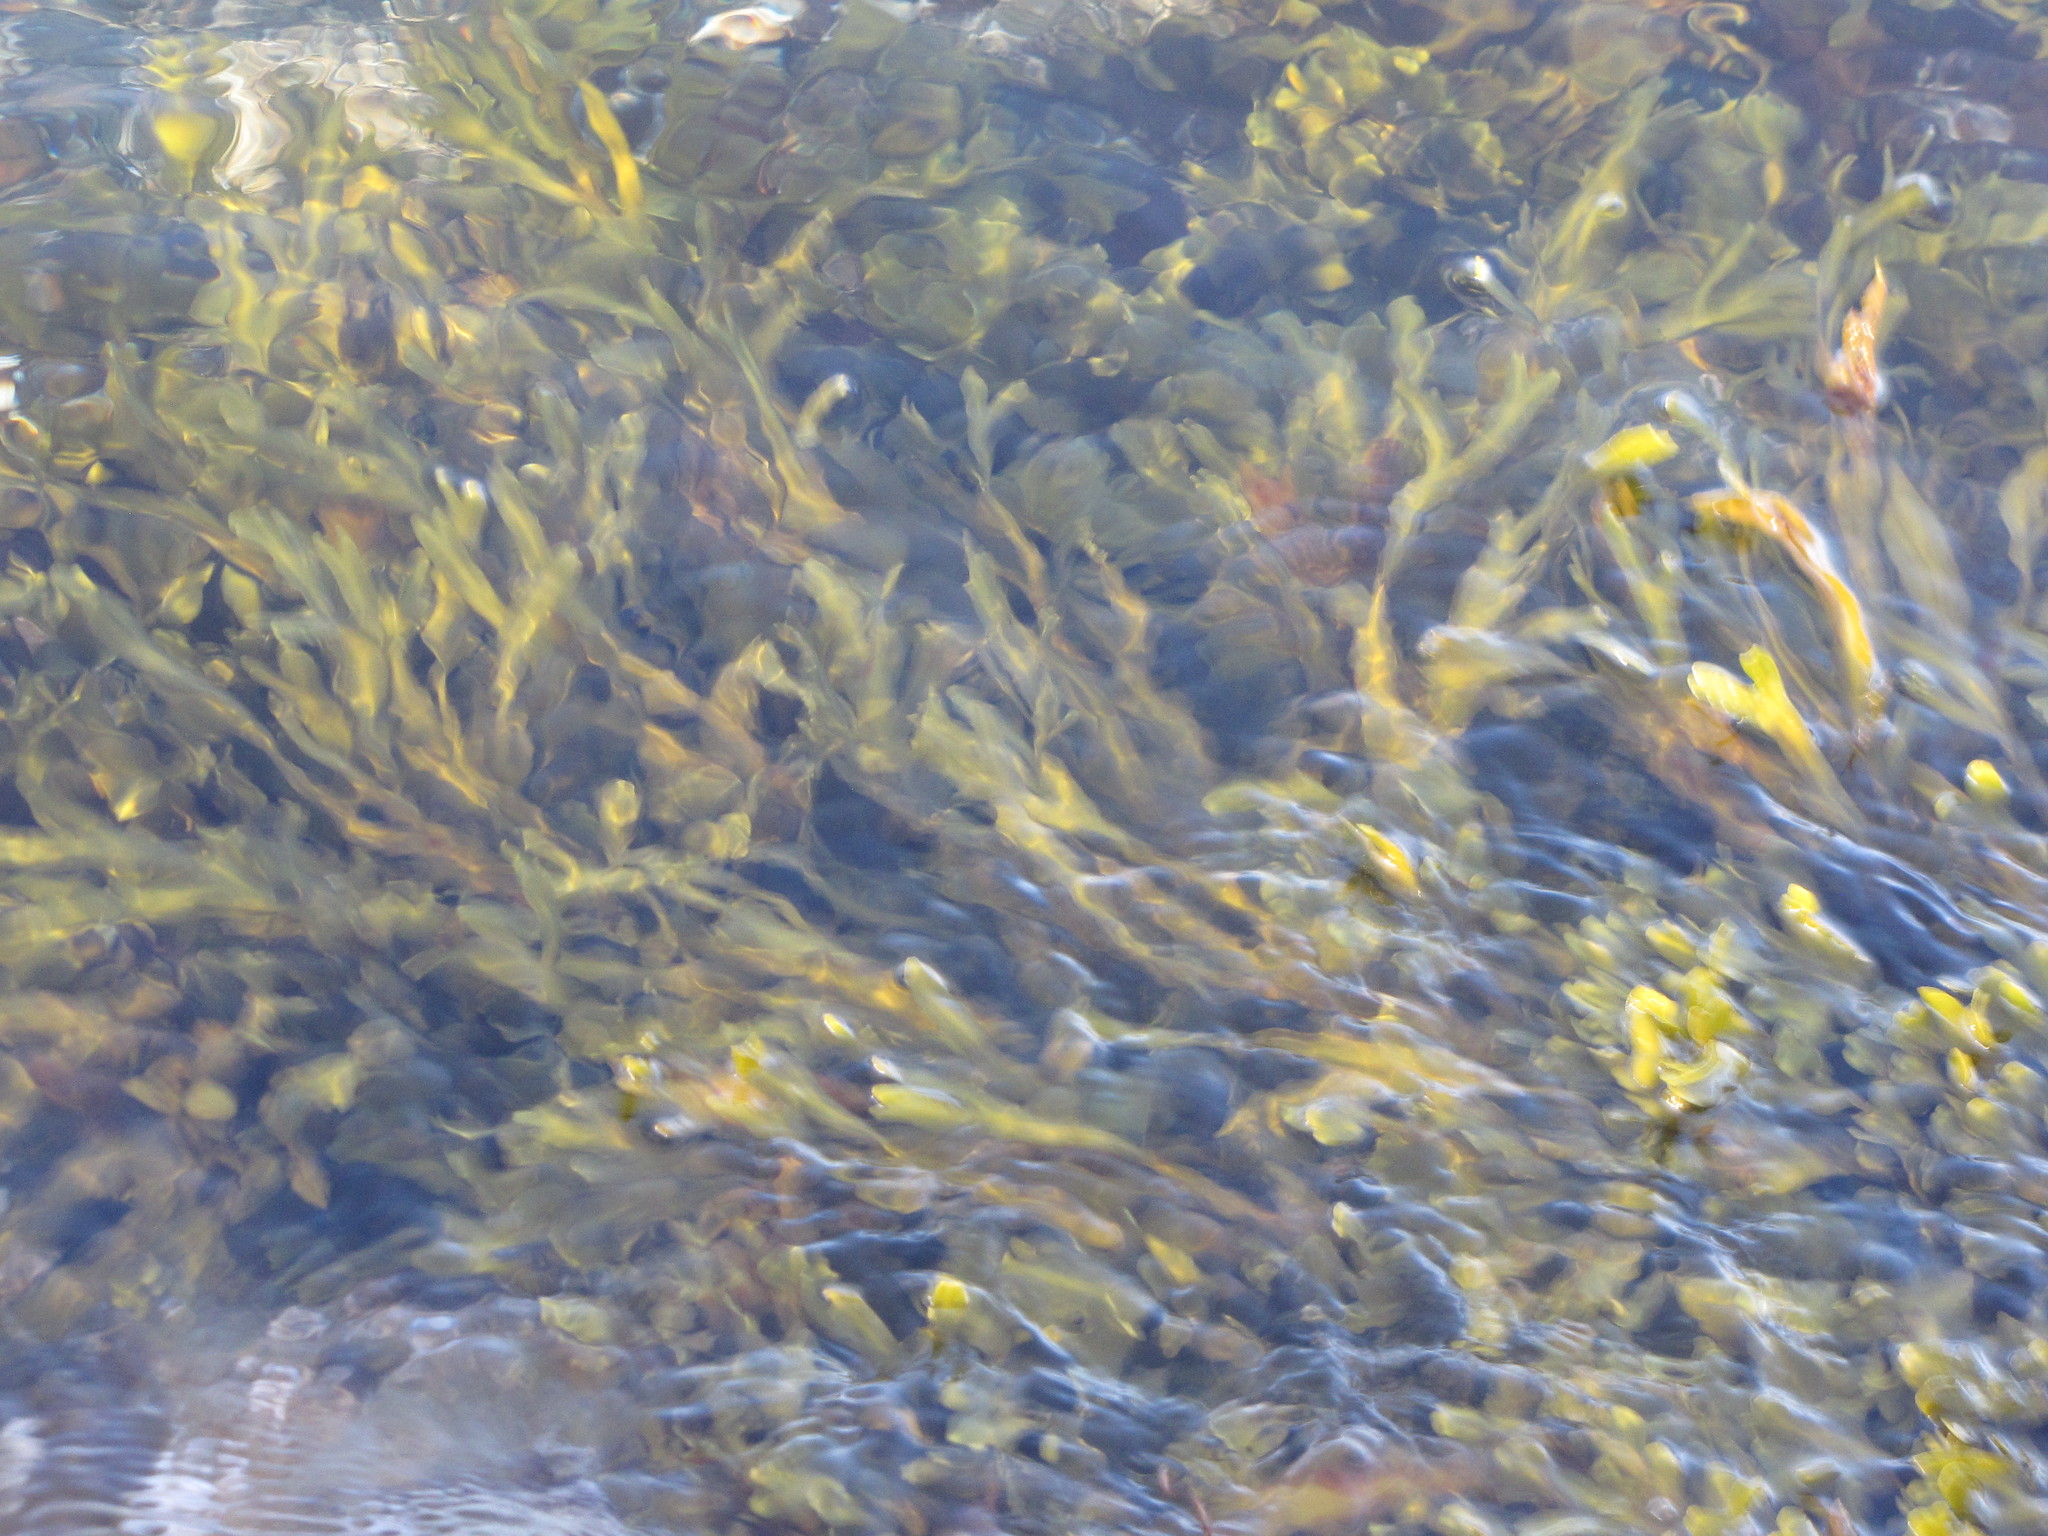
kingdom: Chromista
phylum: Ochrophyta
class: Phaeophyceae
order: Fucales
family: Fucaceae
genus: Fucus
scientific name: Fucus distichus
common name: Rockweed
